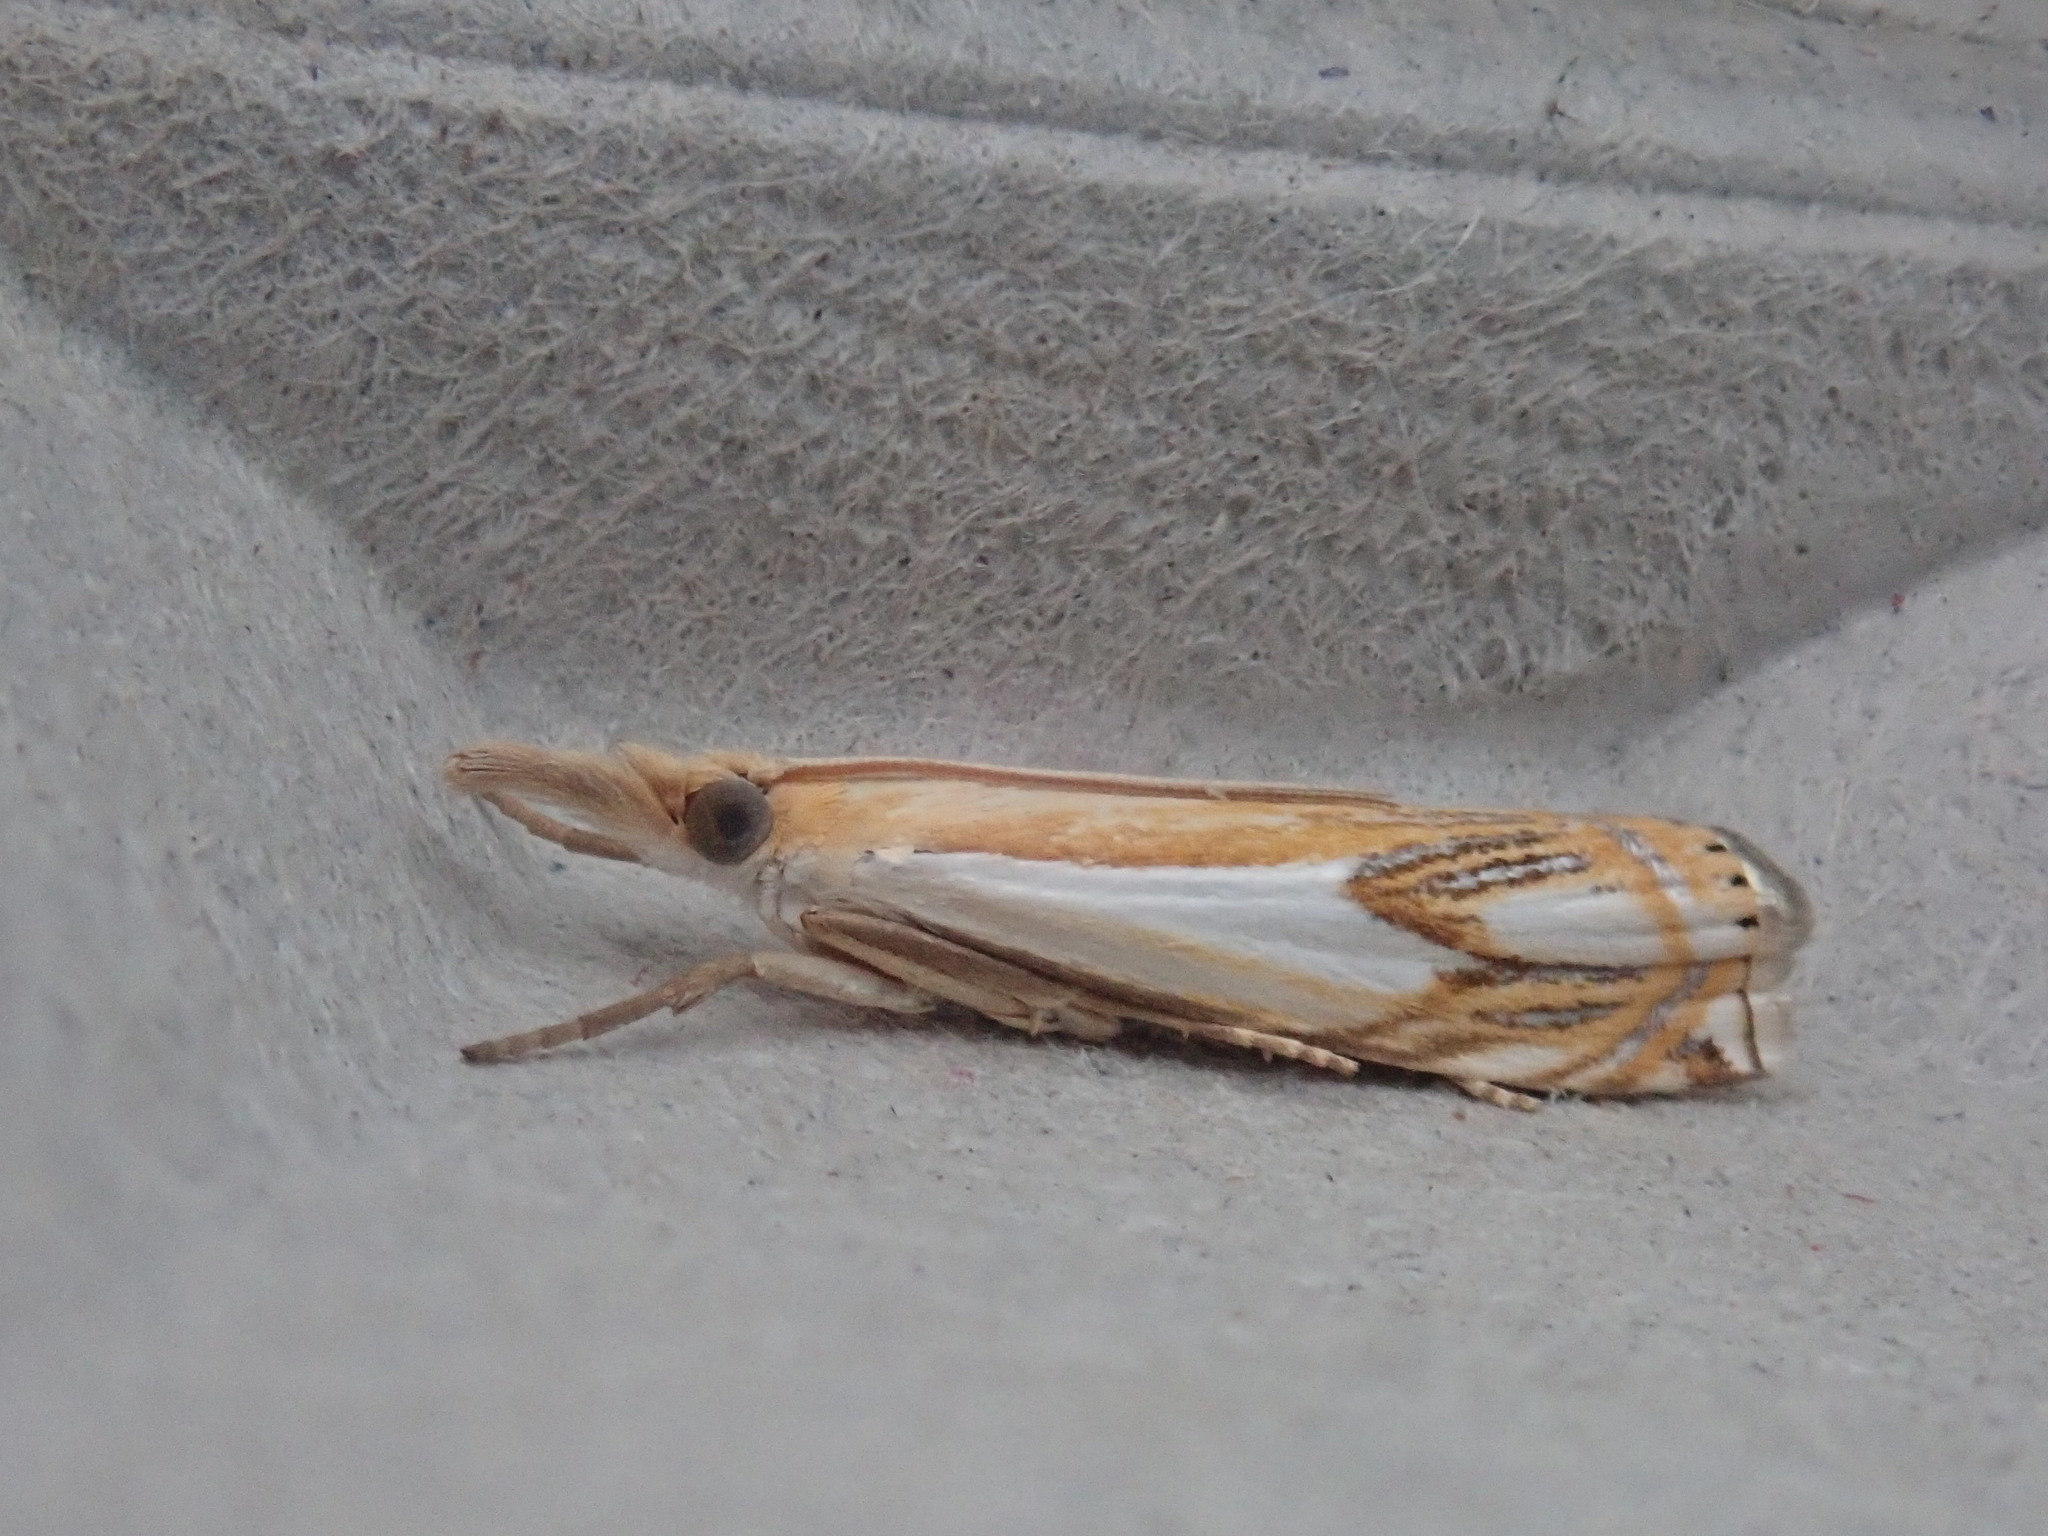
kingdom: Animalia
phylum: Arthropoda
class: Insecta
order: Lepidoptera
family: Crambidae
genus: Crambus
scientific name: Crambus agitatellus
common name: Double-banded grass-veneer
